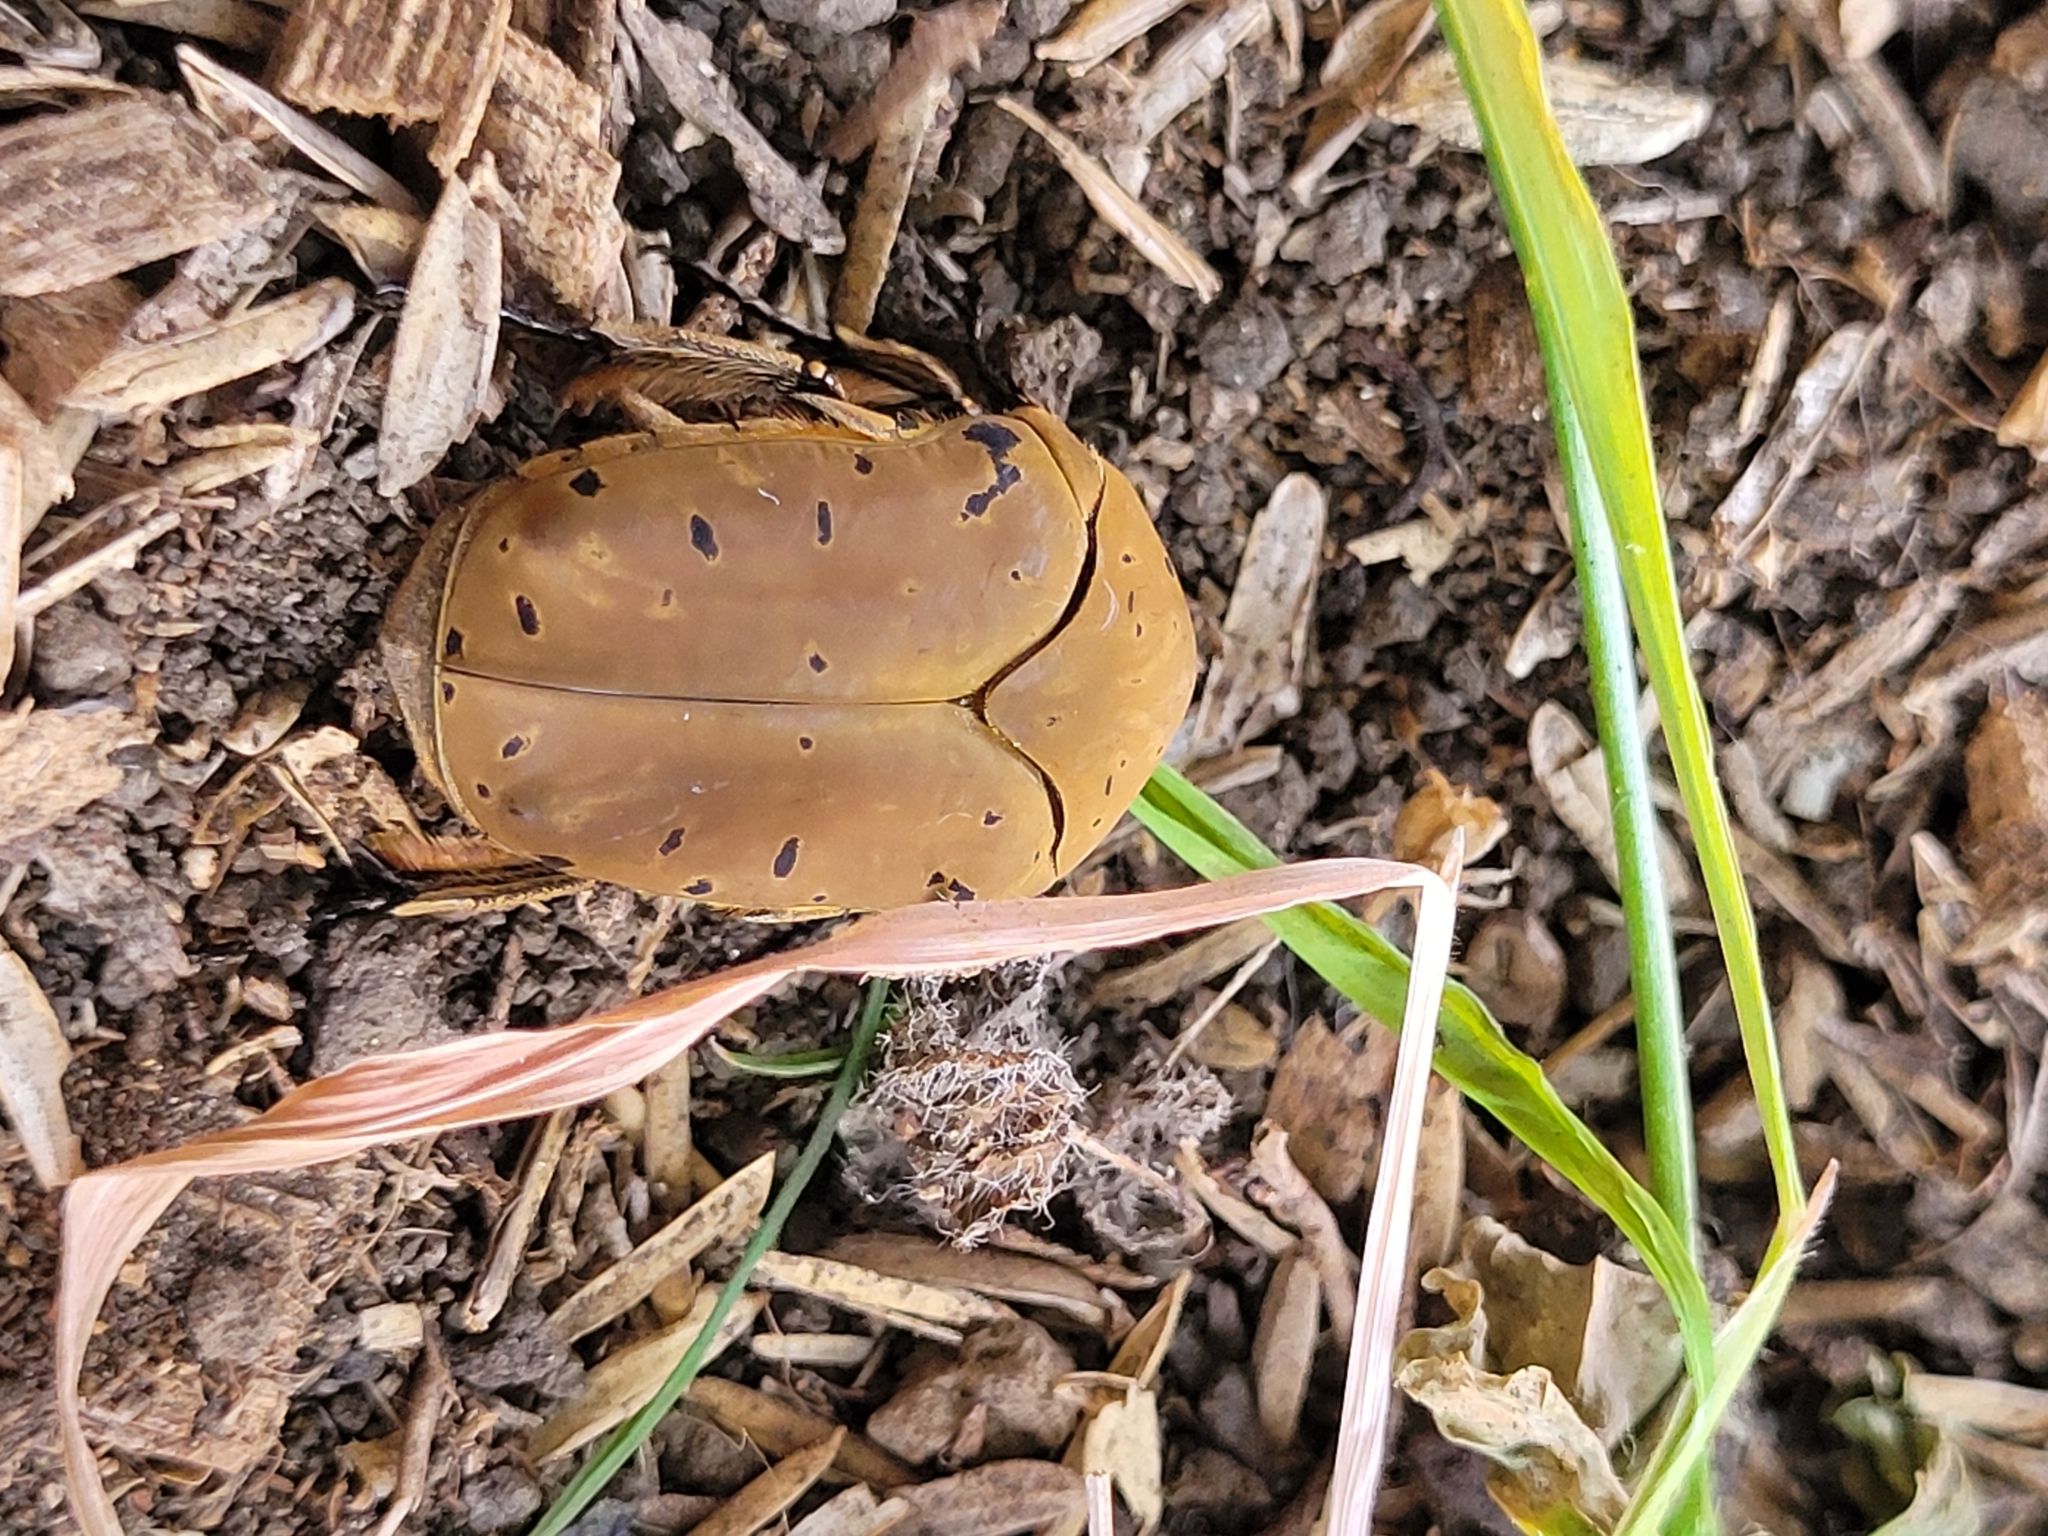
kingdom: Animalia
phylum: Arthropoda
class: Insecta
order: Coleoptera
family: Scarabaeidae
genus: Gymnetis
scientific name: Gymnetis pantherina
